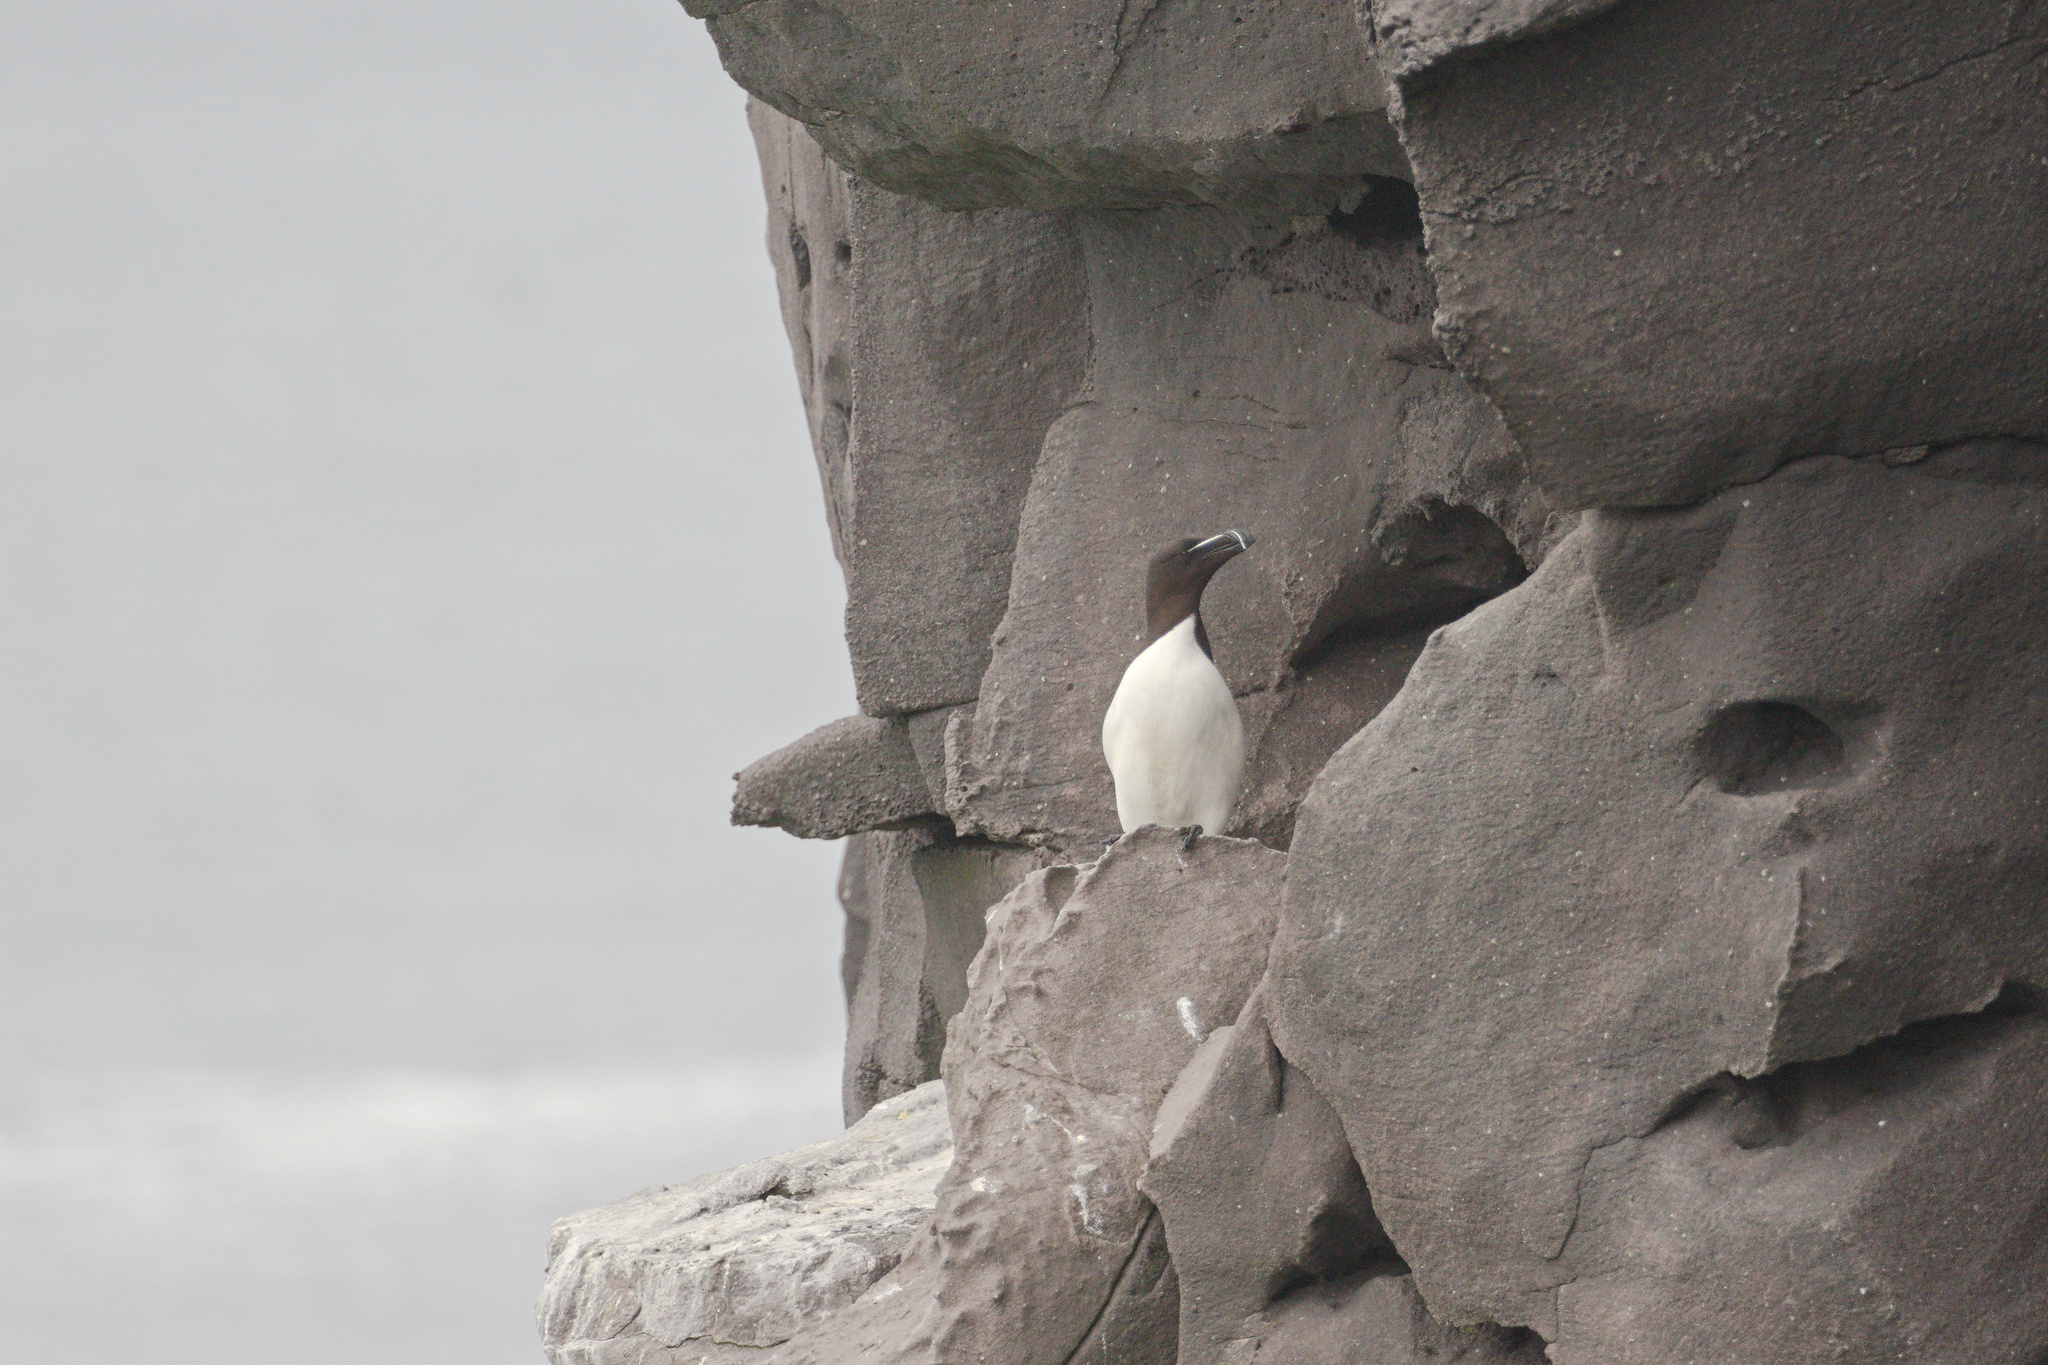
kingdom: Animalia
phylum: Chordata
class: Aves
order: Charadriiformes
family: Alcidae
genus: Alca
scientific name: Alca torda
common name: Razorbill
